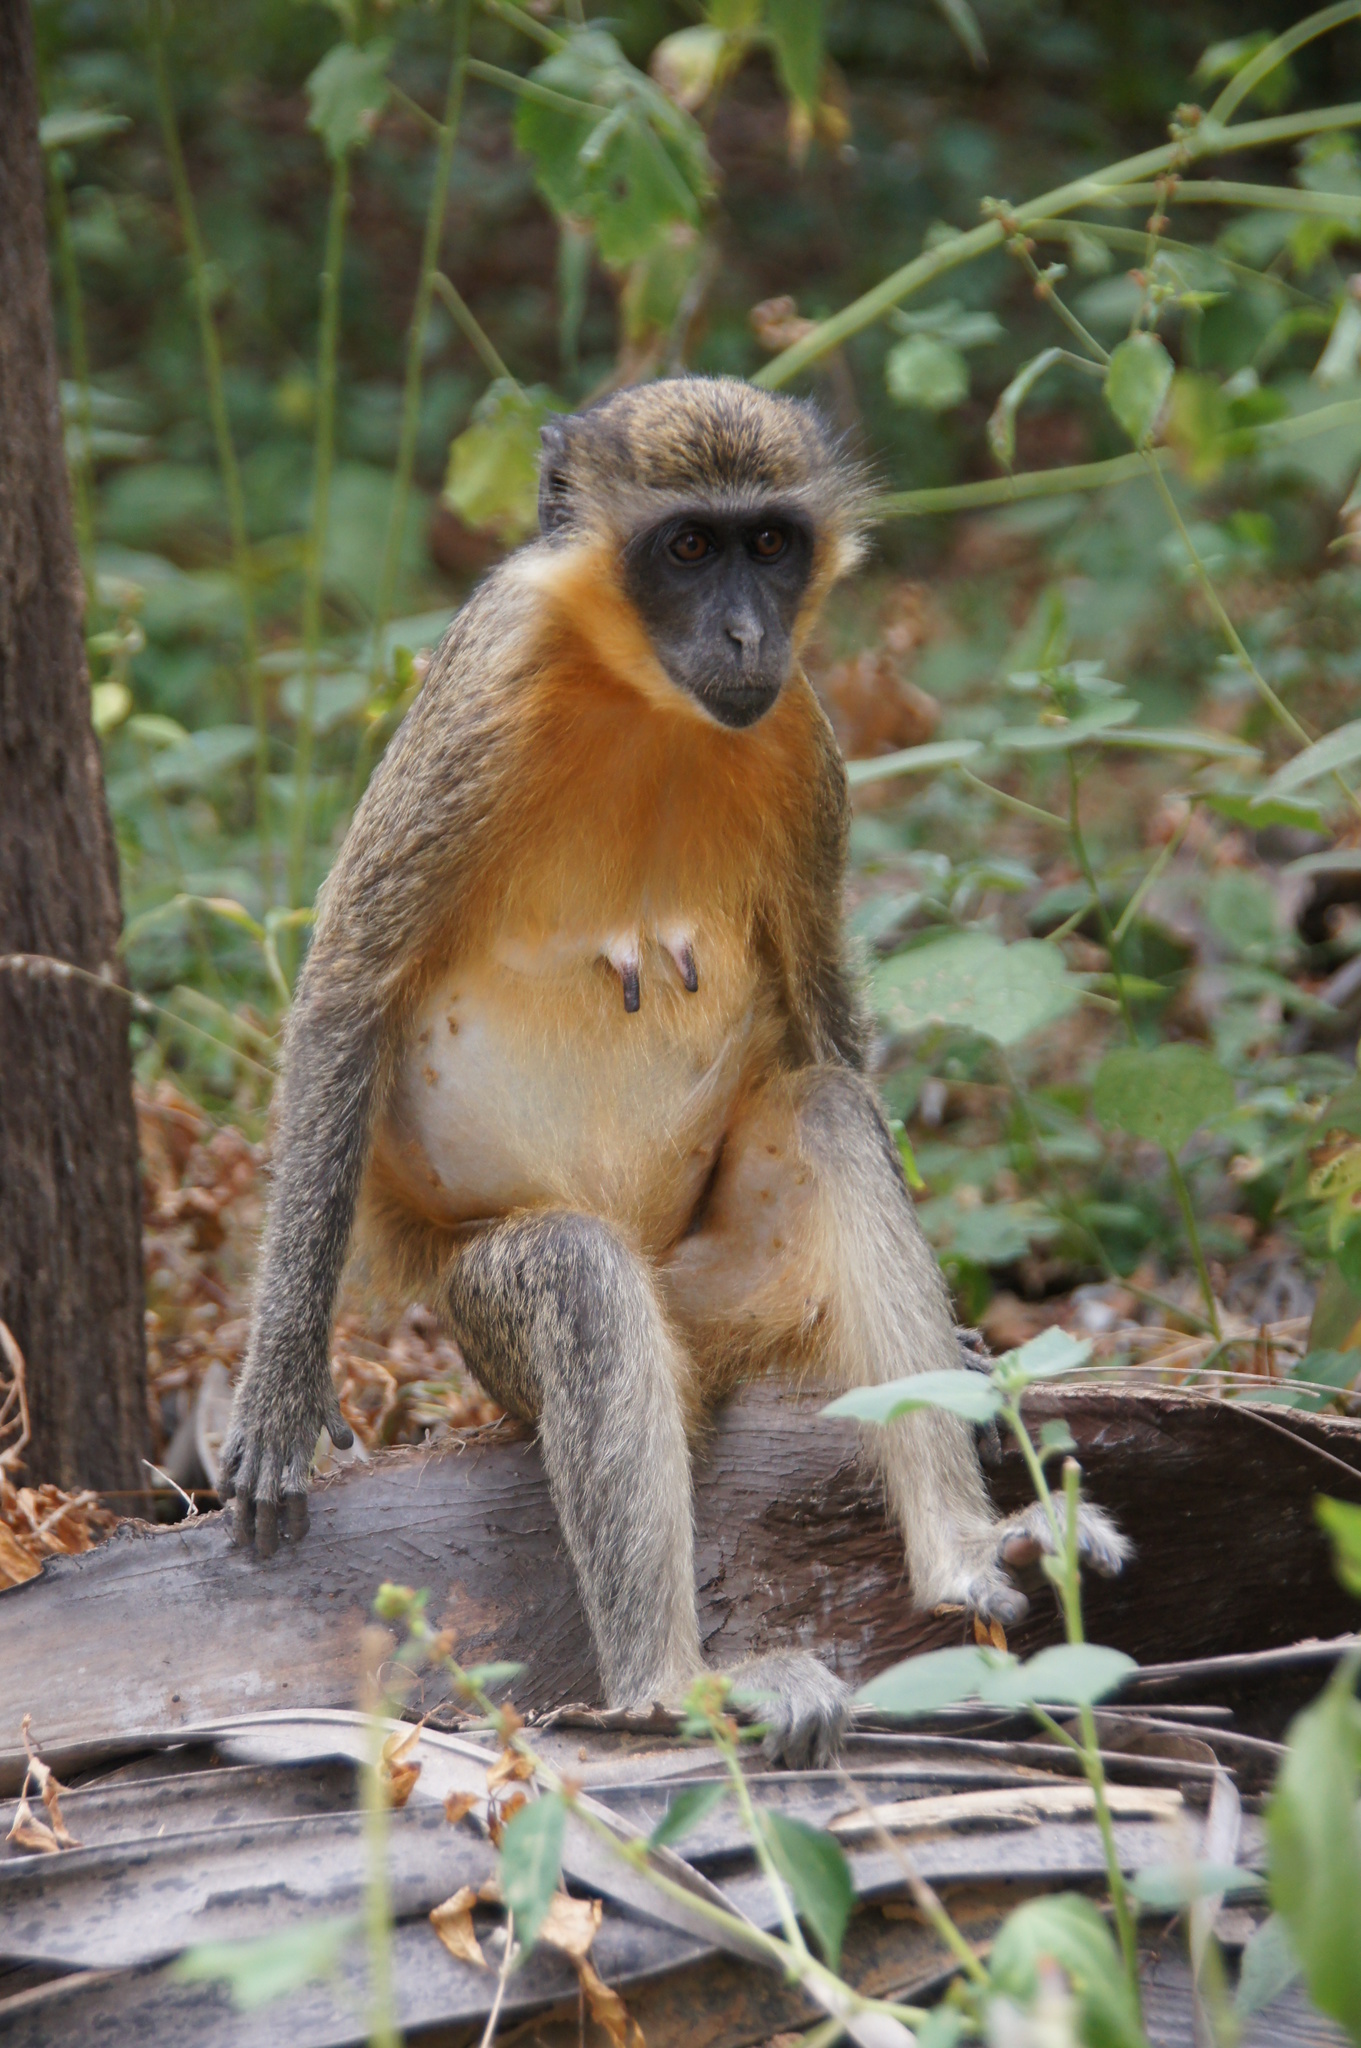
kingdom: Animalia
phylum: Chordata
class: Mammalia
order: Primates
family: Cercopithecidae
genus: Chlorocebus
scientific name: Chlorocebus sabaeus
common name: Green monkey
